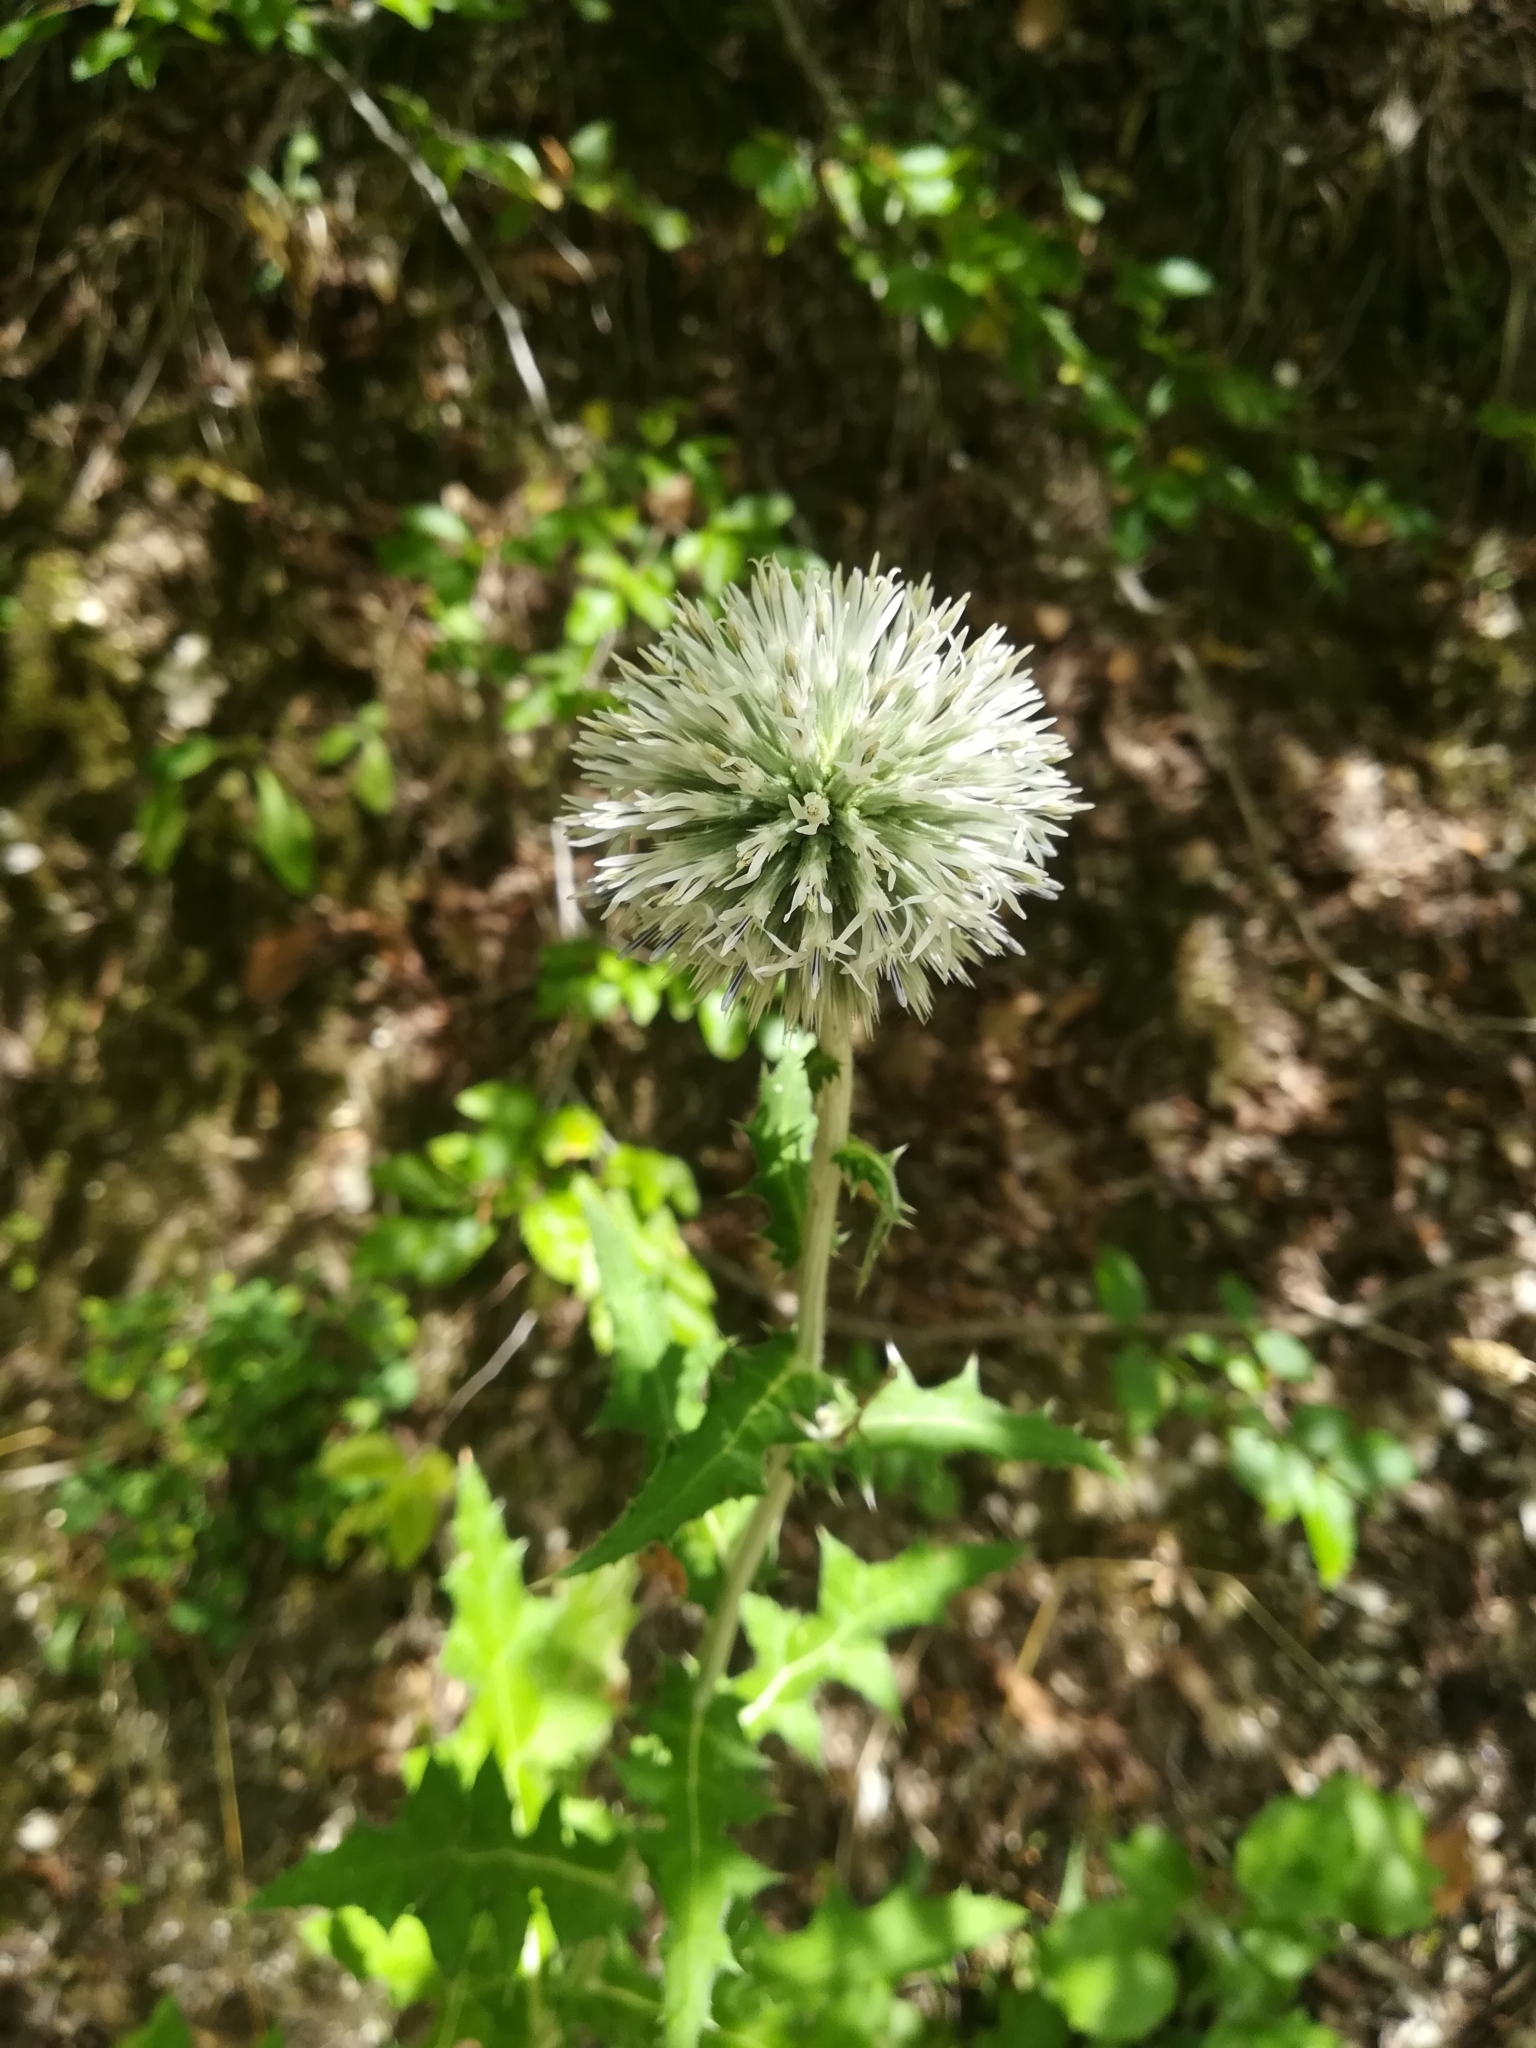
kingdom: Plantae
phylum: Tracheophyta
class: Magnoliopsida
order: Asterales
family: Asteraceae
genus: Echinops
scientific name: Echinops sphaerocephalus
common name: Glandular globe-thistle
